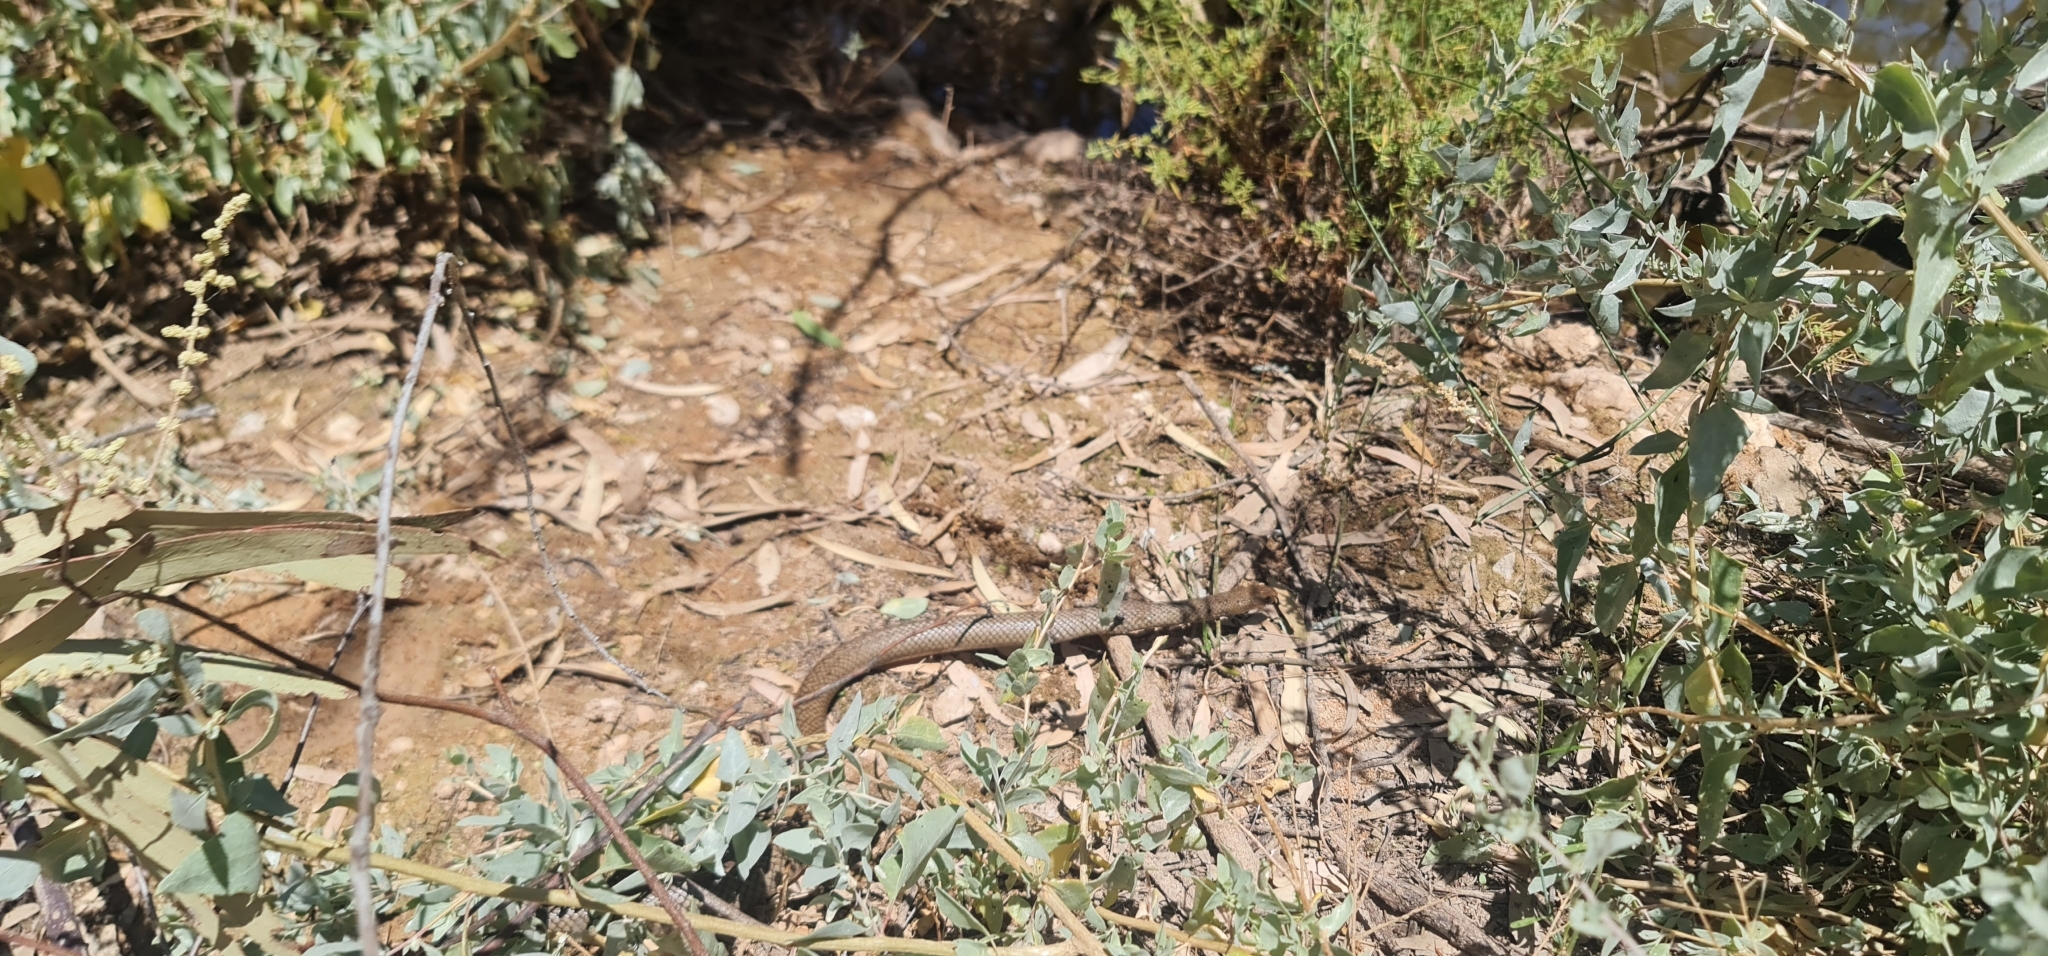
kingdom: Animalia
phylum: Chordata
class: Squamata
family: Elapidae
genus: Pseudonaja
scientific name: Pseudonaja textilis
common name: Eastern brown snake
